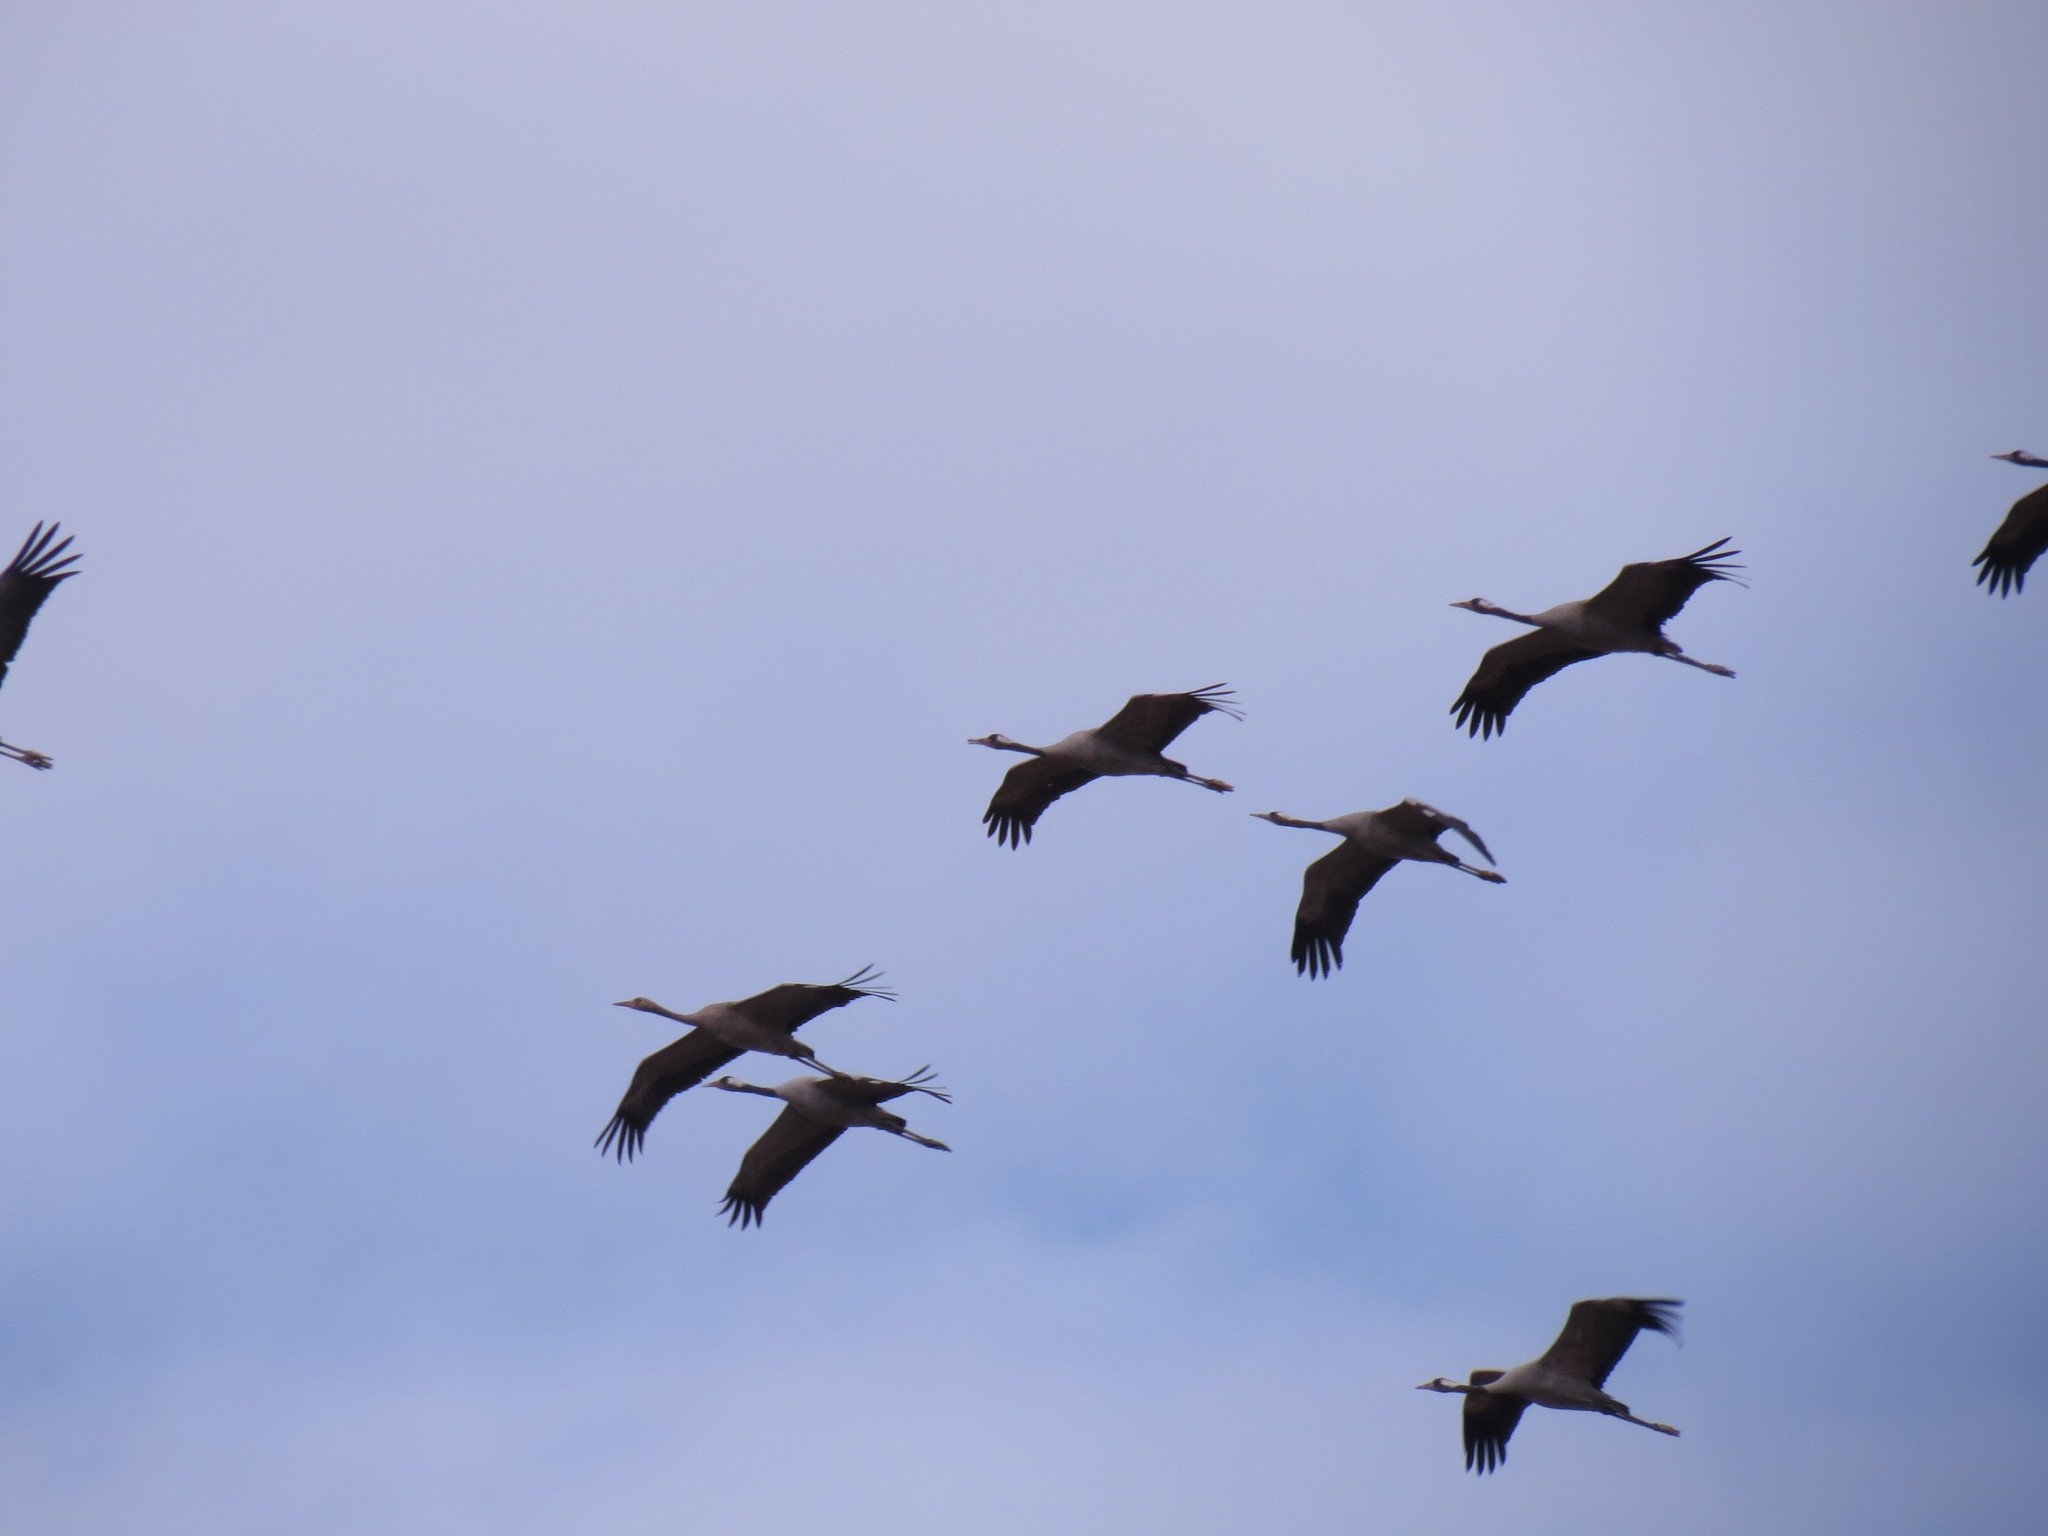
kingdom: Animalia
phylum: Chordata
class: Aves
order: Gruiformes
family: Gruidae
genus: Grus
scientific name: Grus grus
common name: Common crane
